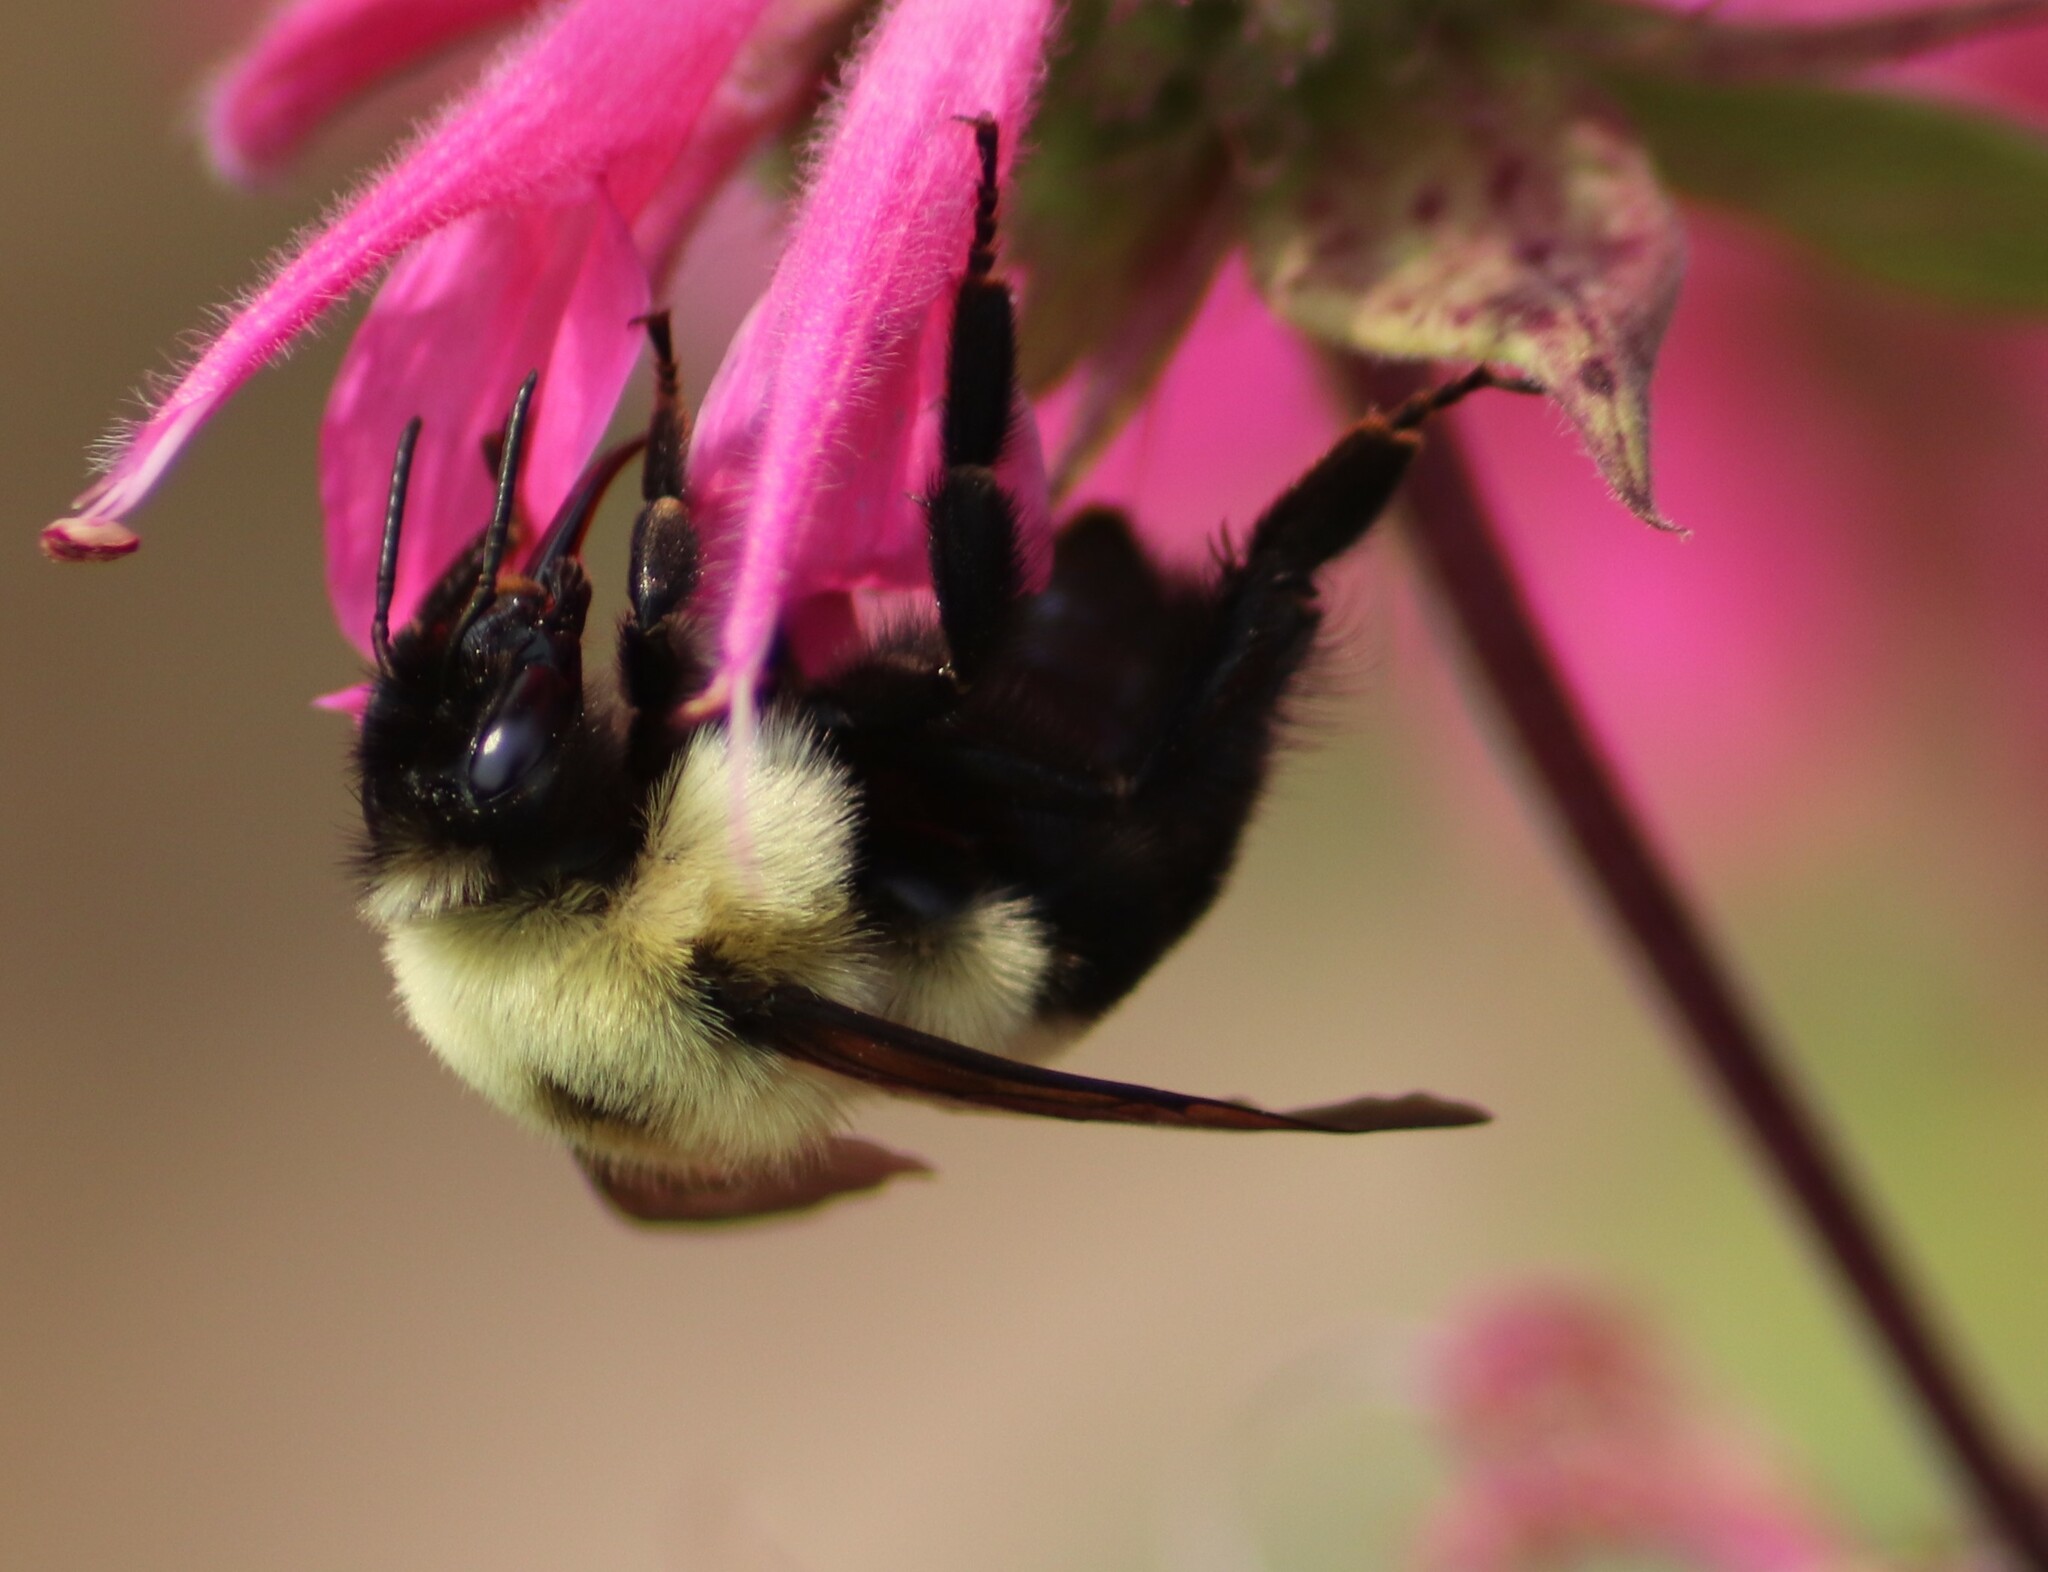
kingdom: Animalia
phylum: Arthropoda
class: Insecta
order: Hymenoptera
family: Apidae
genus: Bombus
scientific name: Bombus bimaculatus
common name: Two-spotted bumble bee
